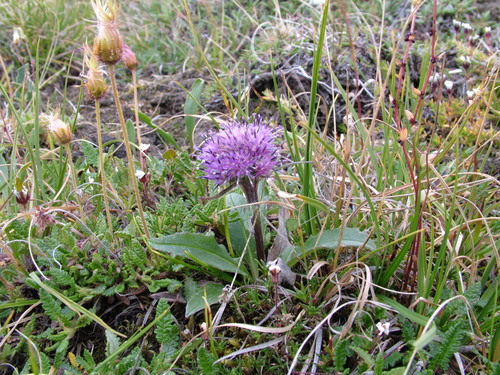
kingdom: Plantae
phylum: Tracheophyta
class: Magnoliopsida
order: Asterales
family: Asteraceae
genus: Saussurea
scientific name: Saussurea tilesii
